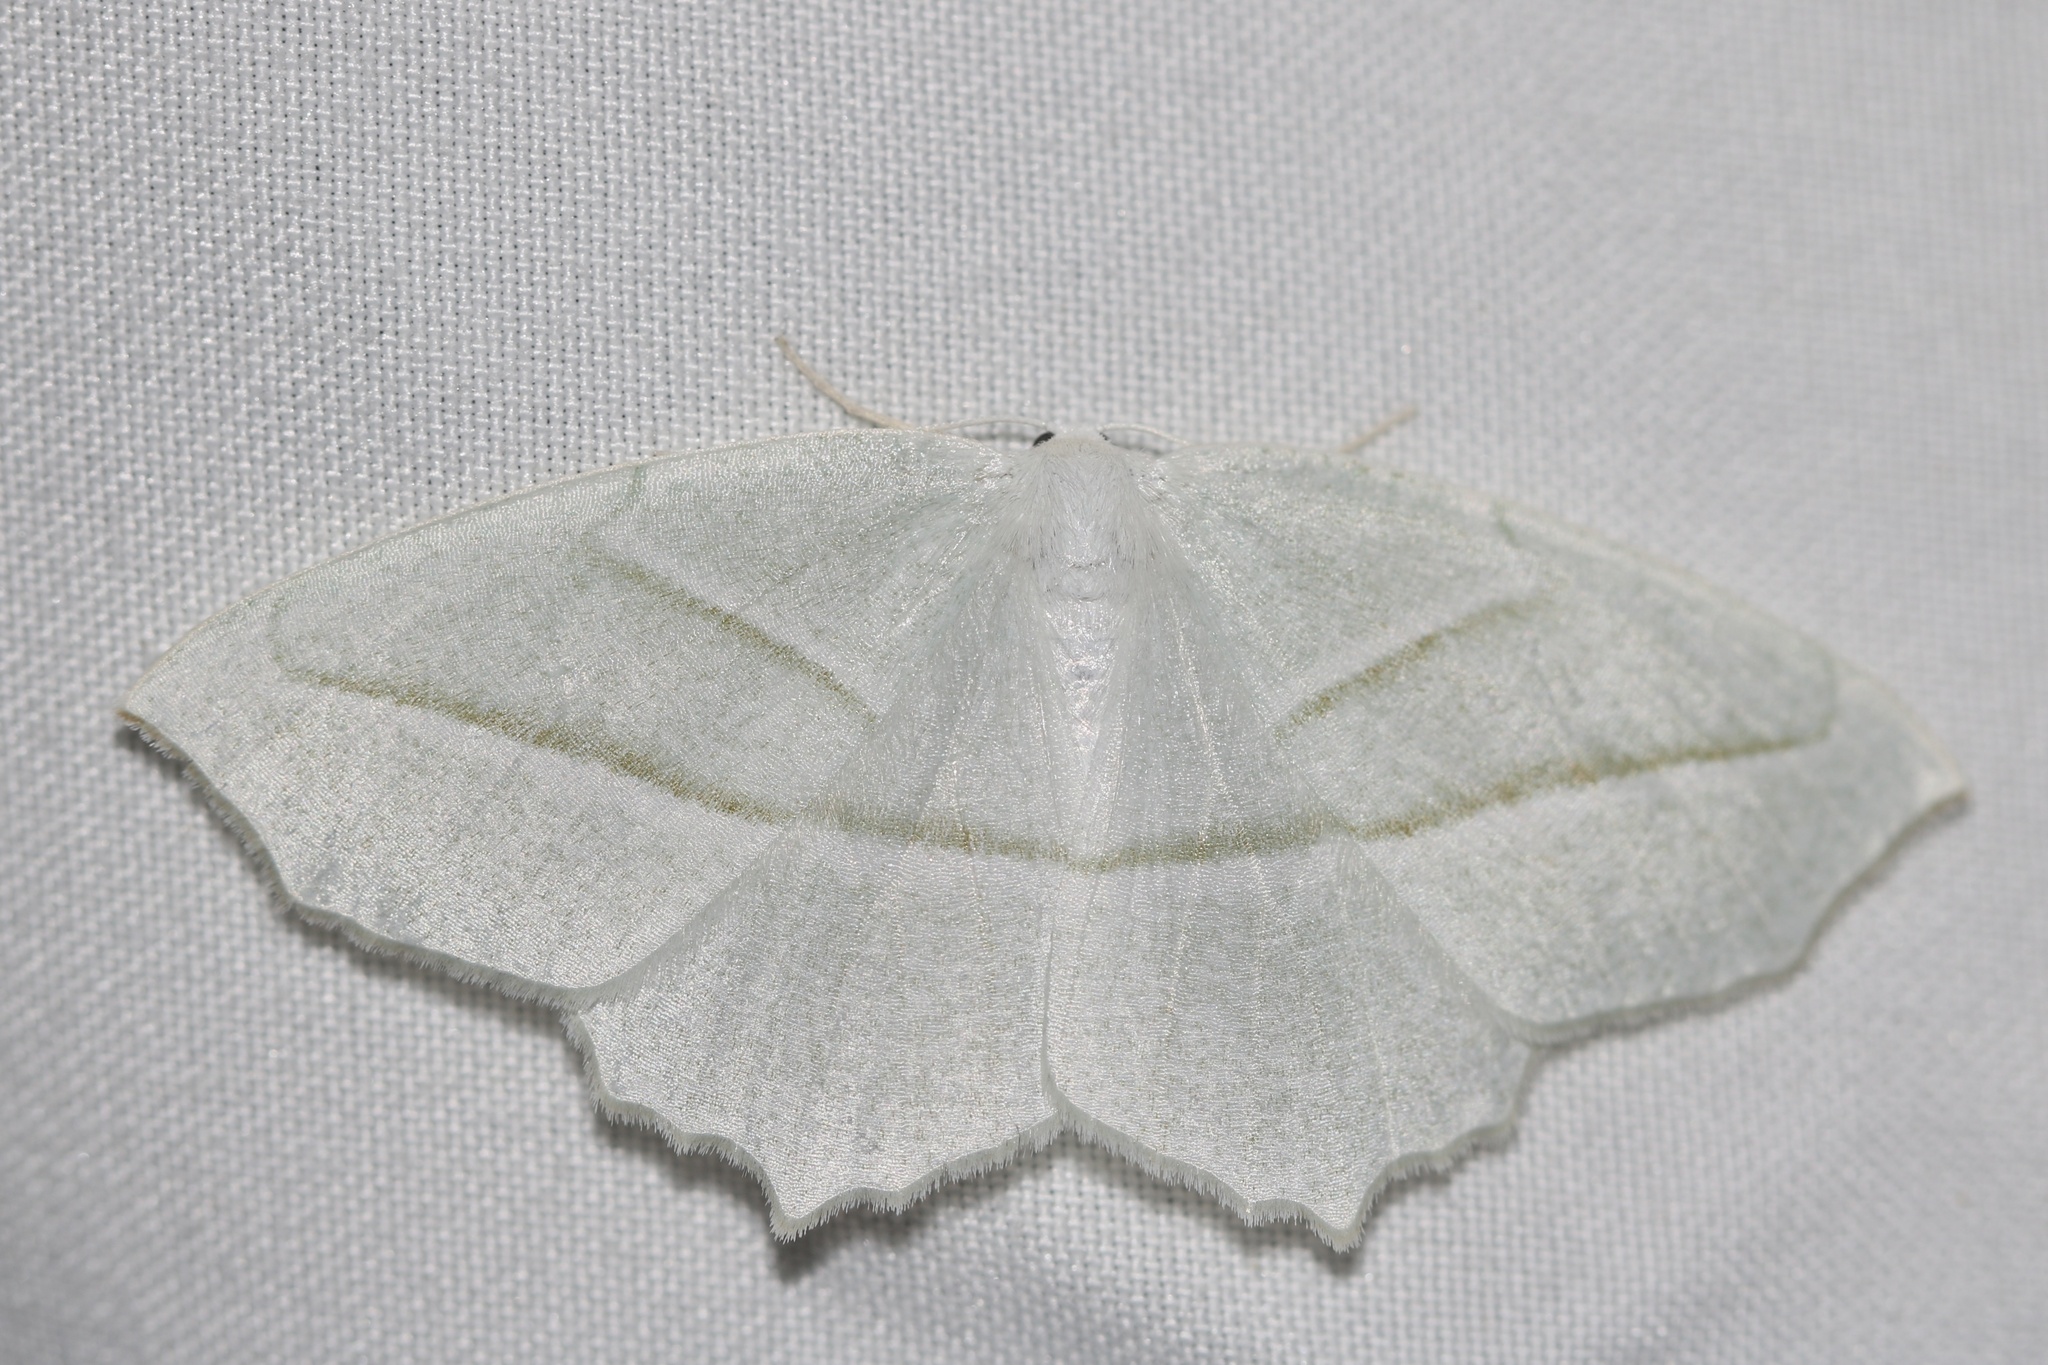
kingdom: Animalia
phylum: Arthropoda
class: Insecta
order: Lepidoptera
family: Geometridae
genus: Campaea
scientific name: Campaea perlata
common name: Fringed looper
